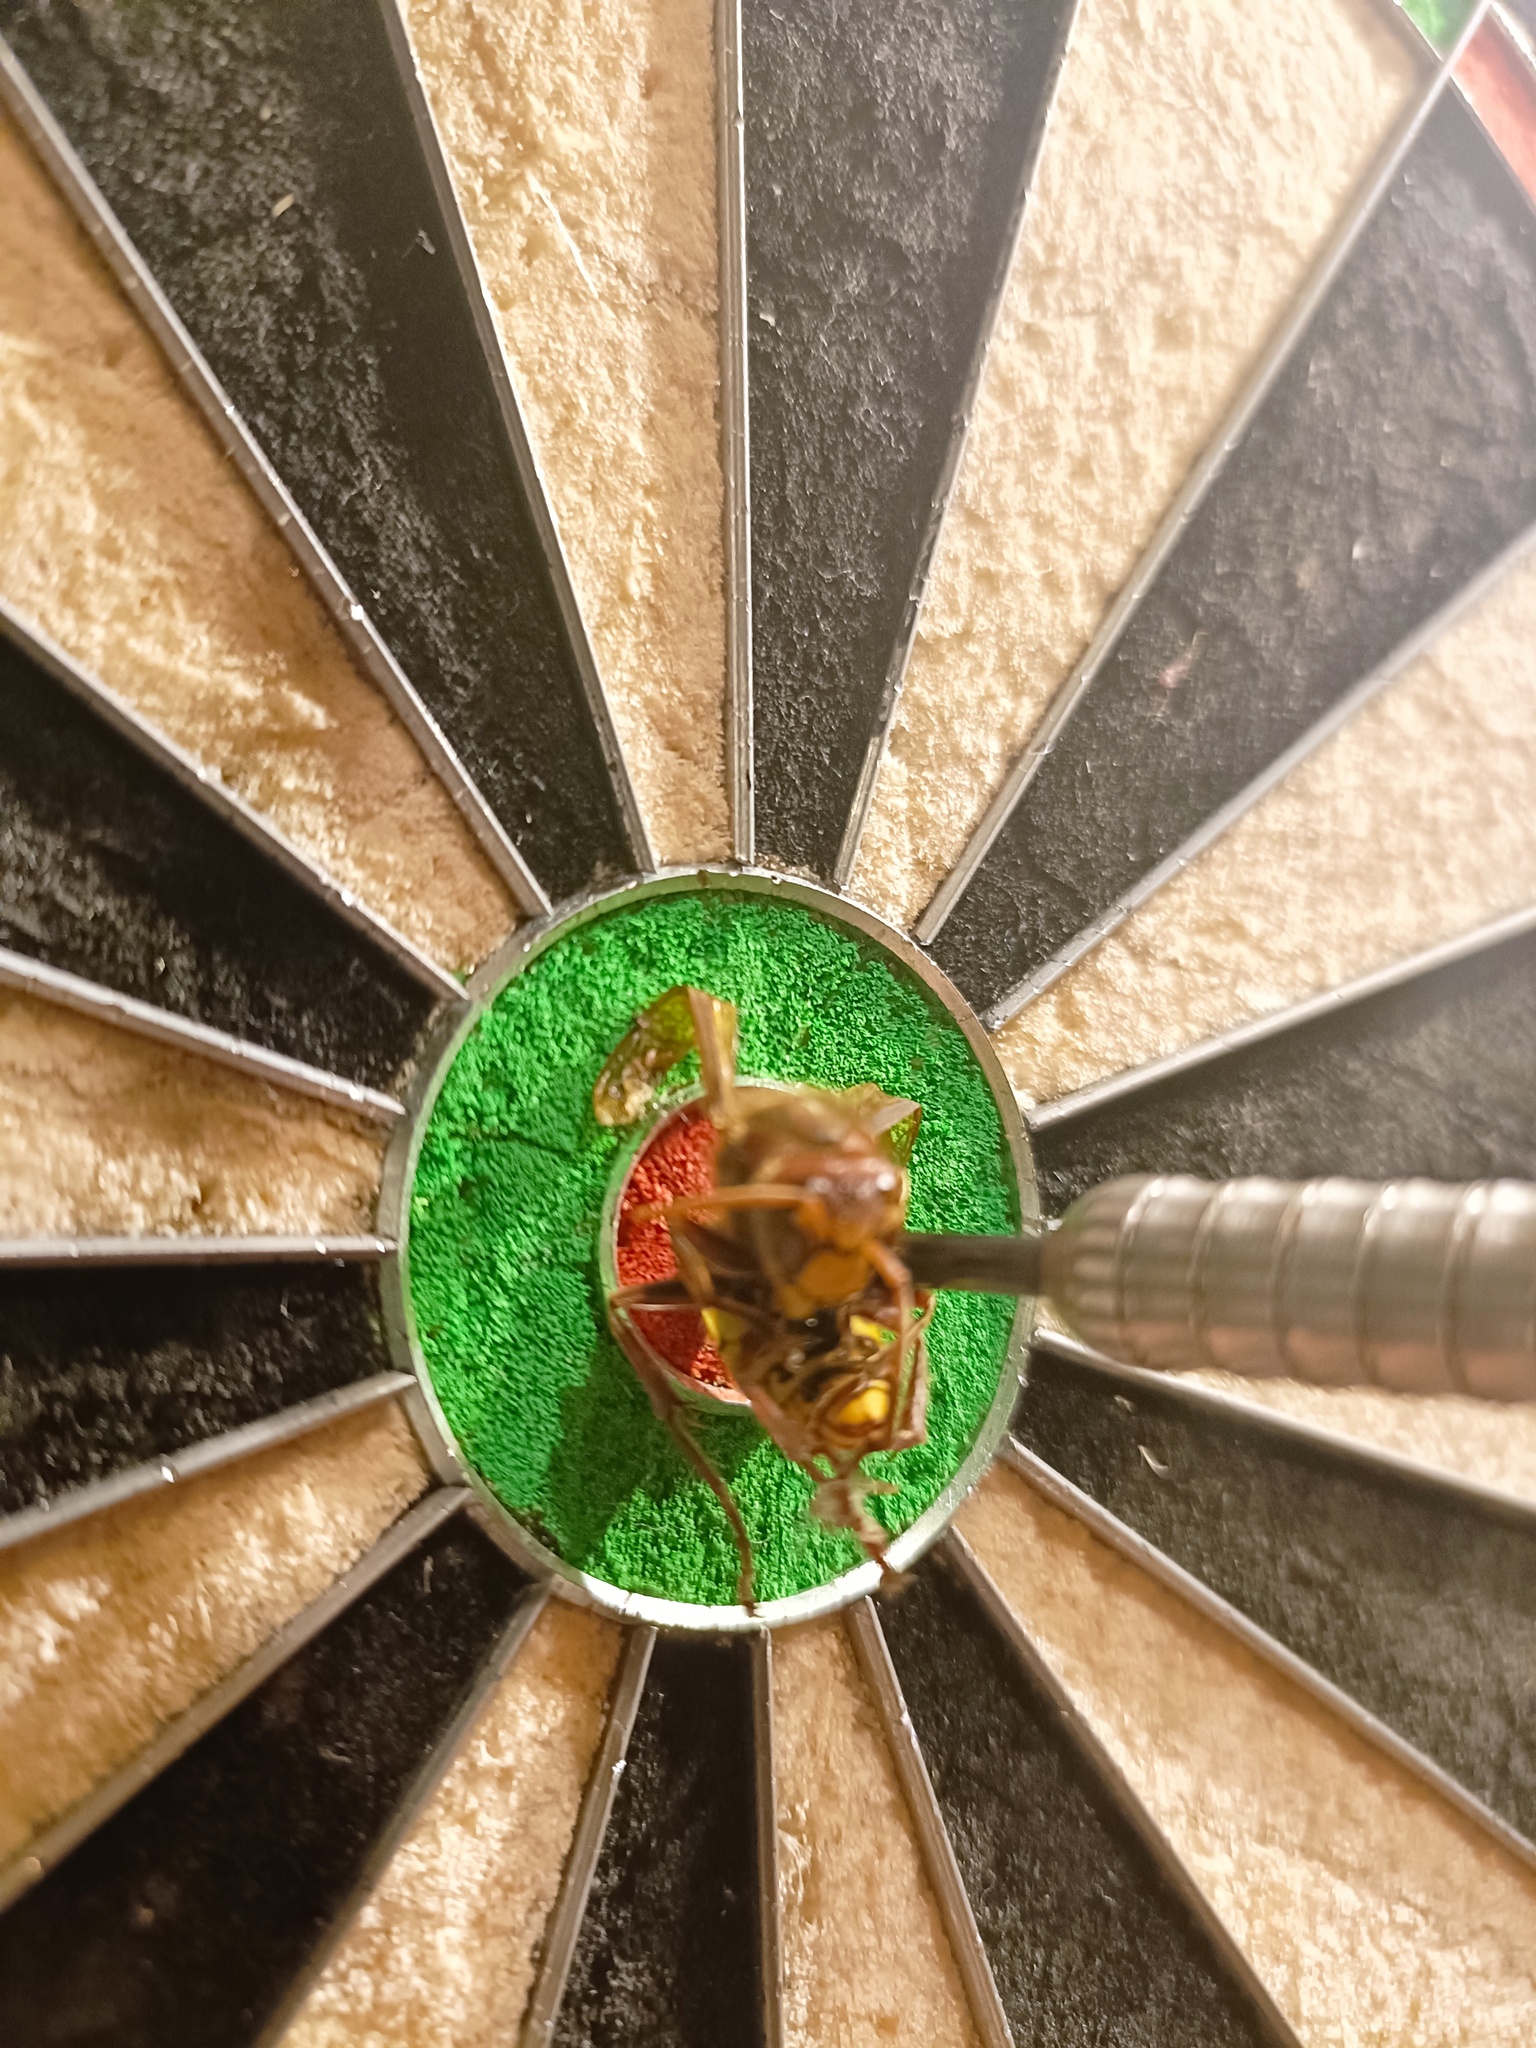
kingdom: Animalia
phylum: Arthropoda
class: Insecta
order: Hymenoptera
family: Vespidae
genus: Vespa
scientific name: Vespa crabro
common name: Hornet
